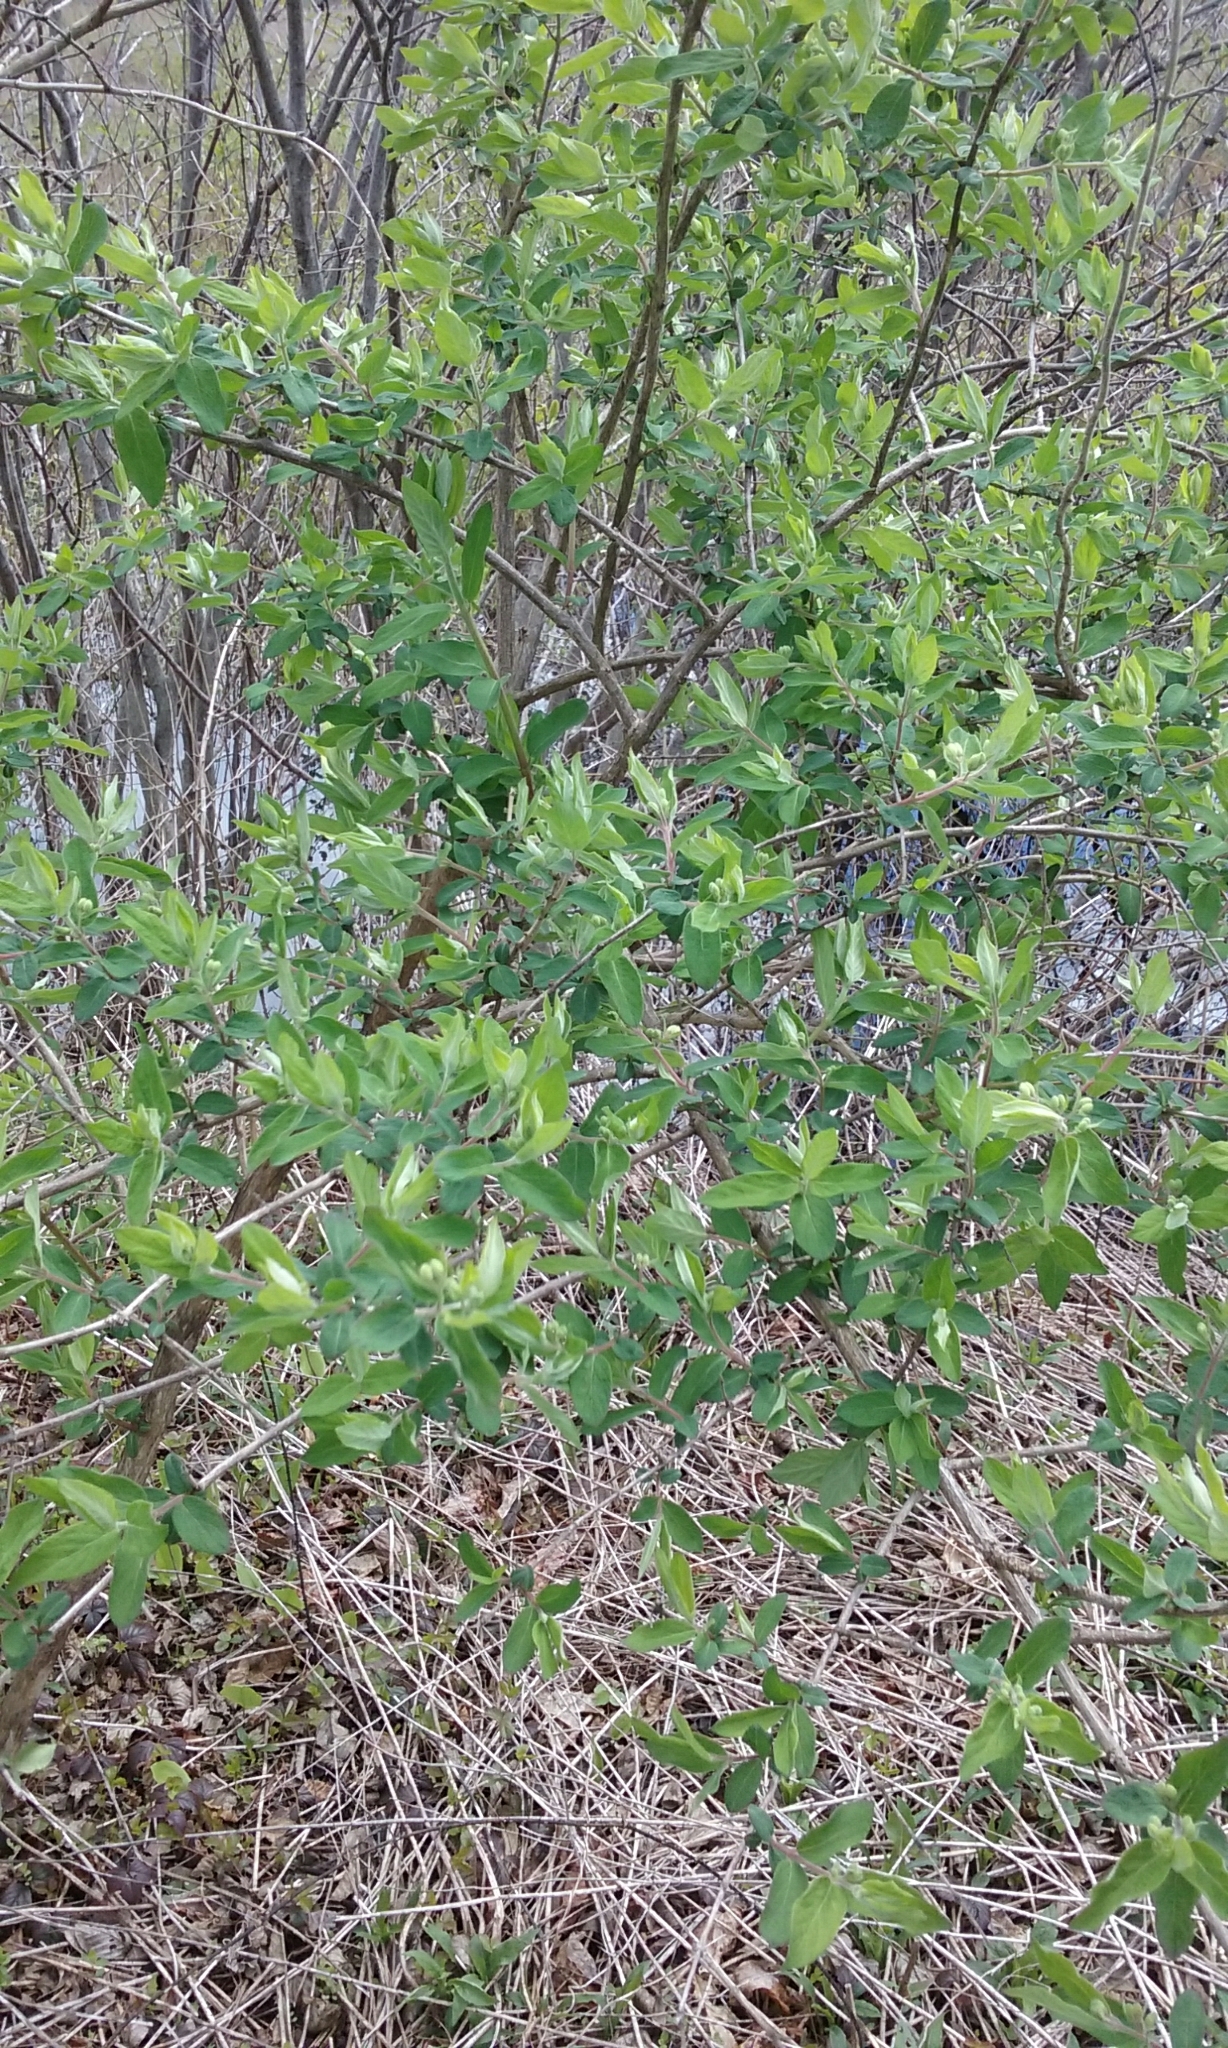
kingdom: Plantae
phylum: Tracheophyta
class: Magnoliopsida
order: Dipsacales
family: Caprifoliaceae
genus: Lonicera
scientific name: Lonicera
